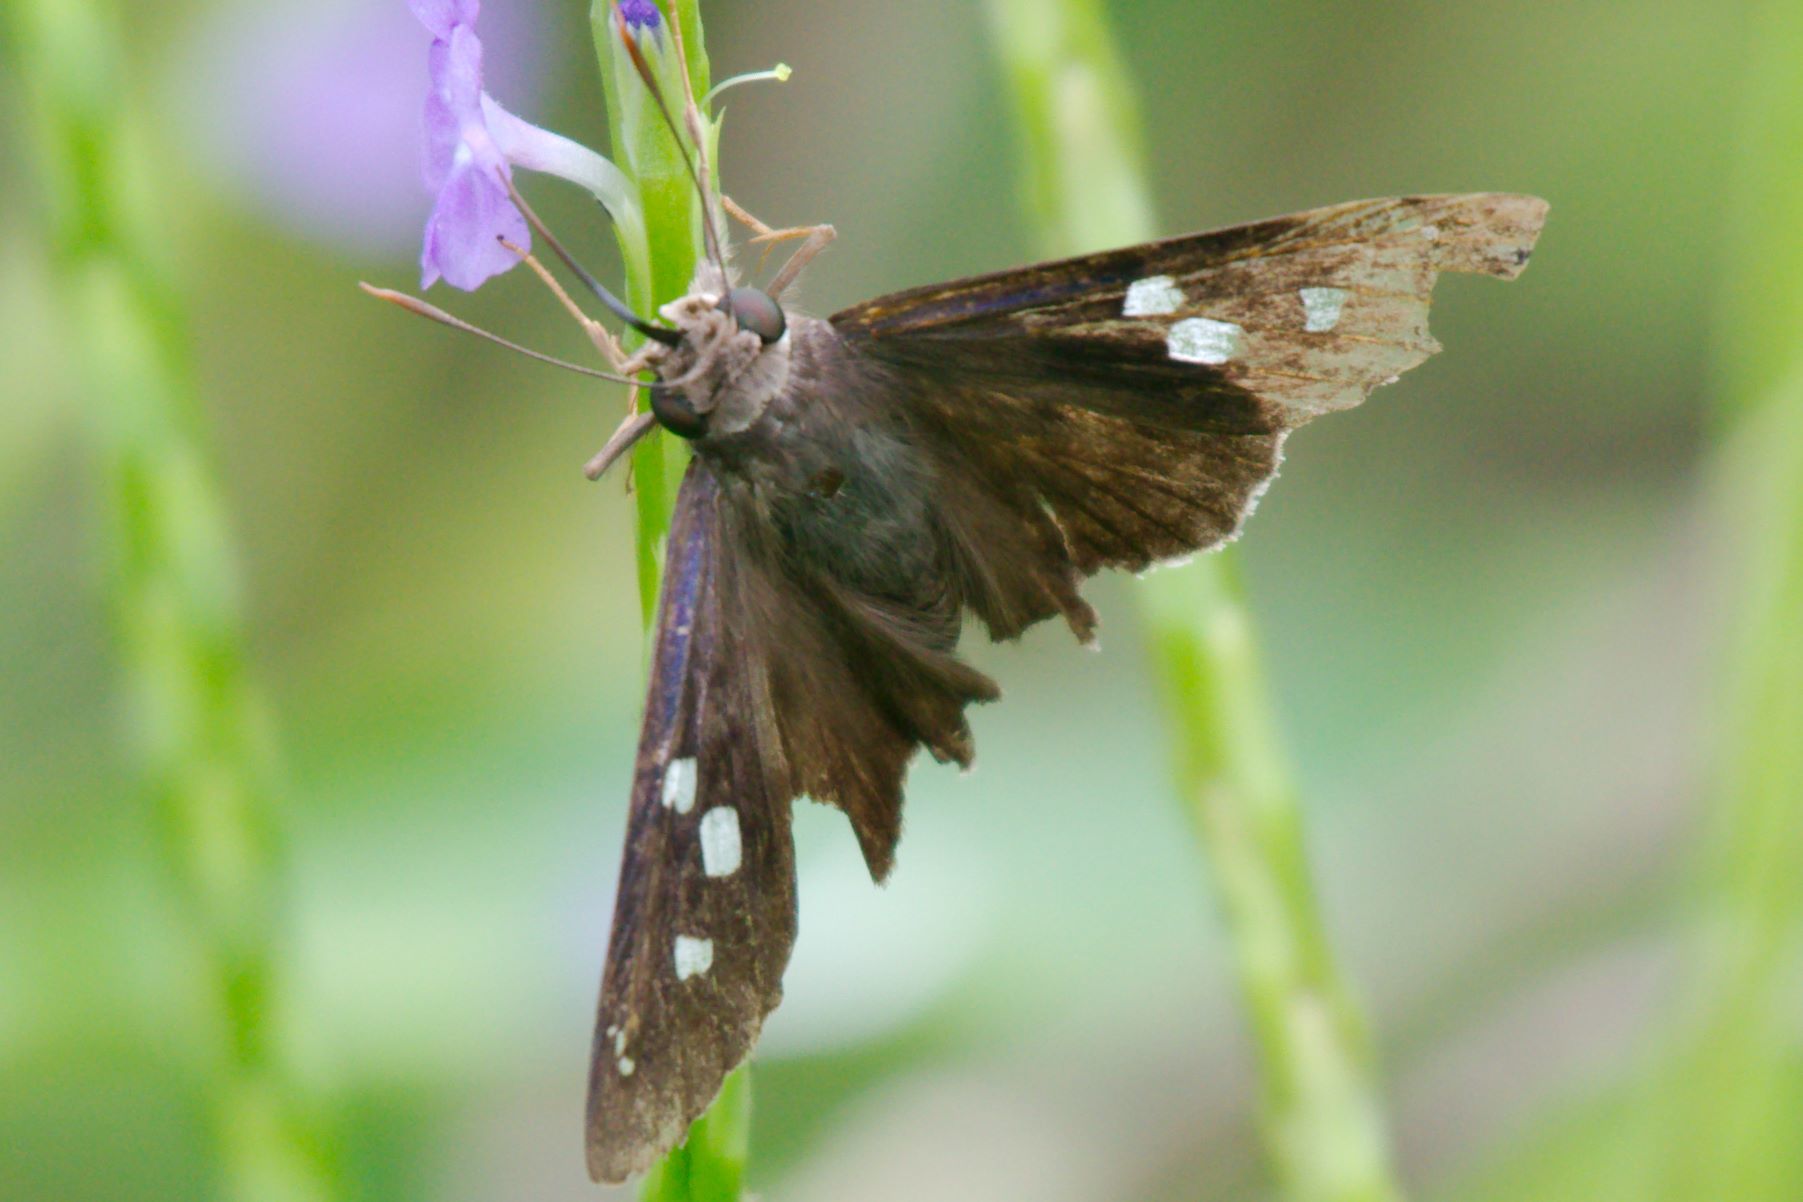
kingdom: Animalia
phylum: Arthropoda
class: Insecta
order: Lepidoptera
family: Hesperiidae
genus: Polygonus
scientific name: Polygonus leo
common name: Hammoch skipper
